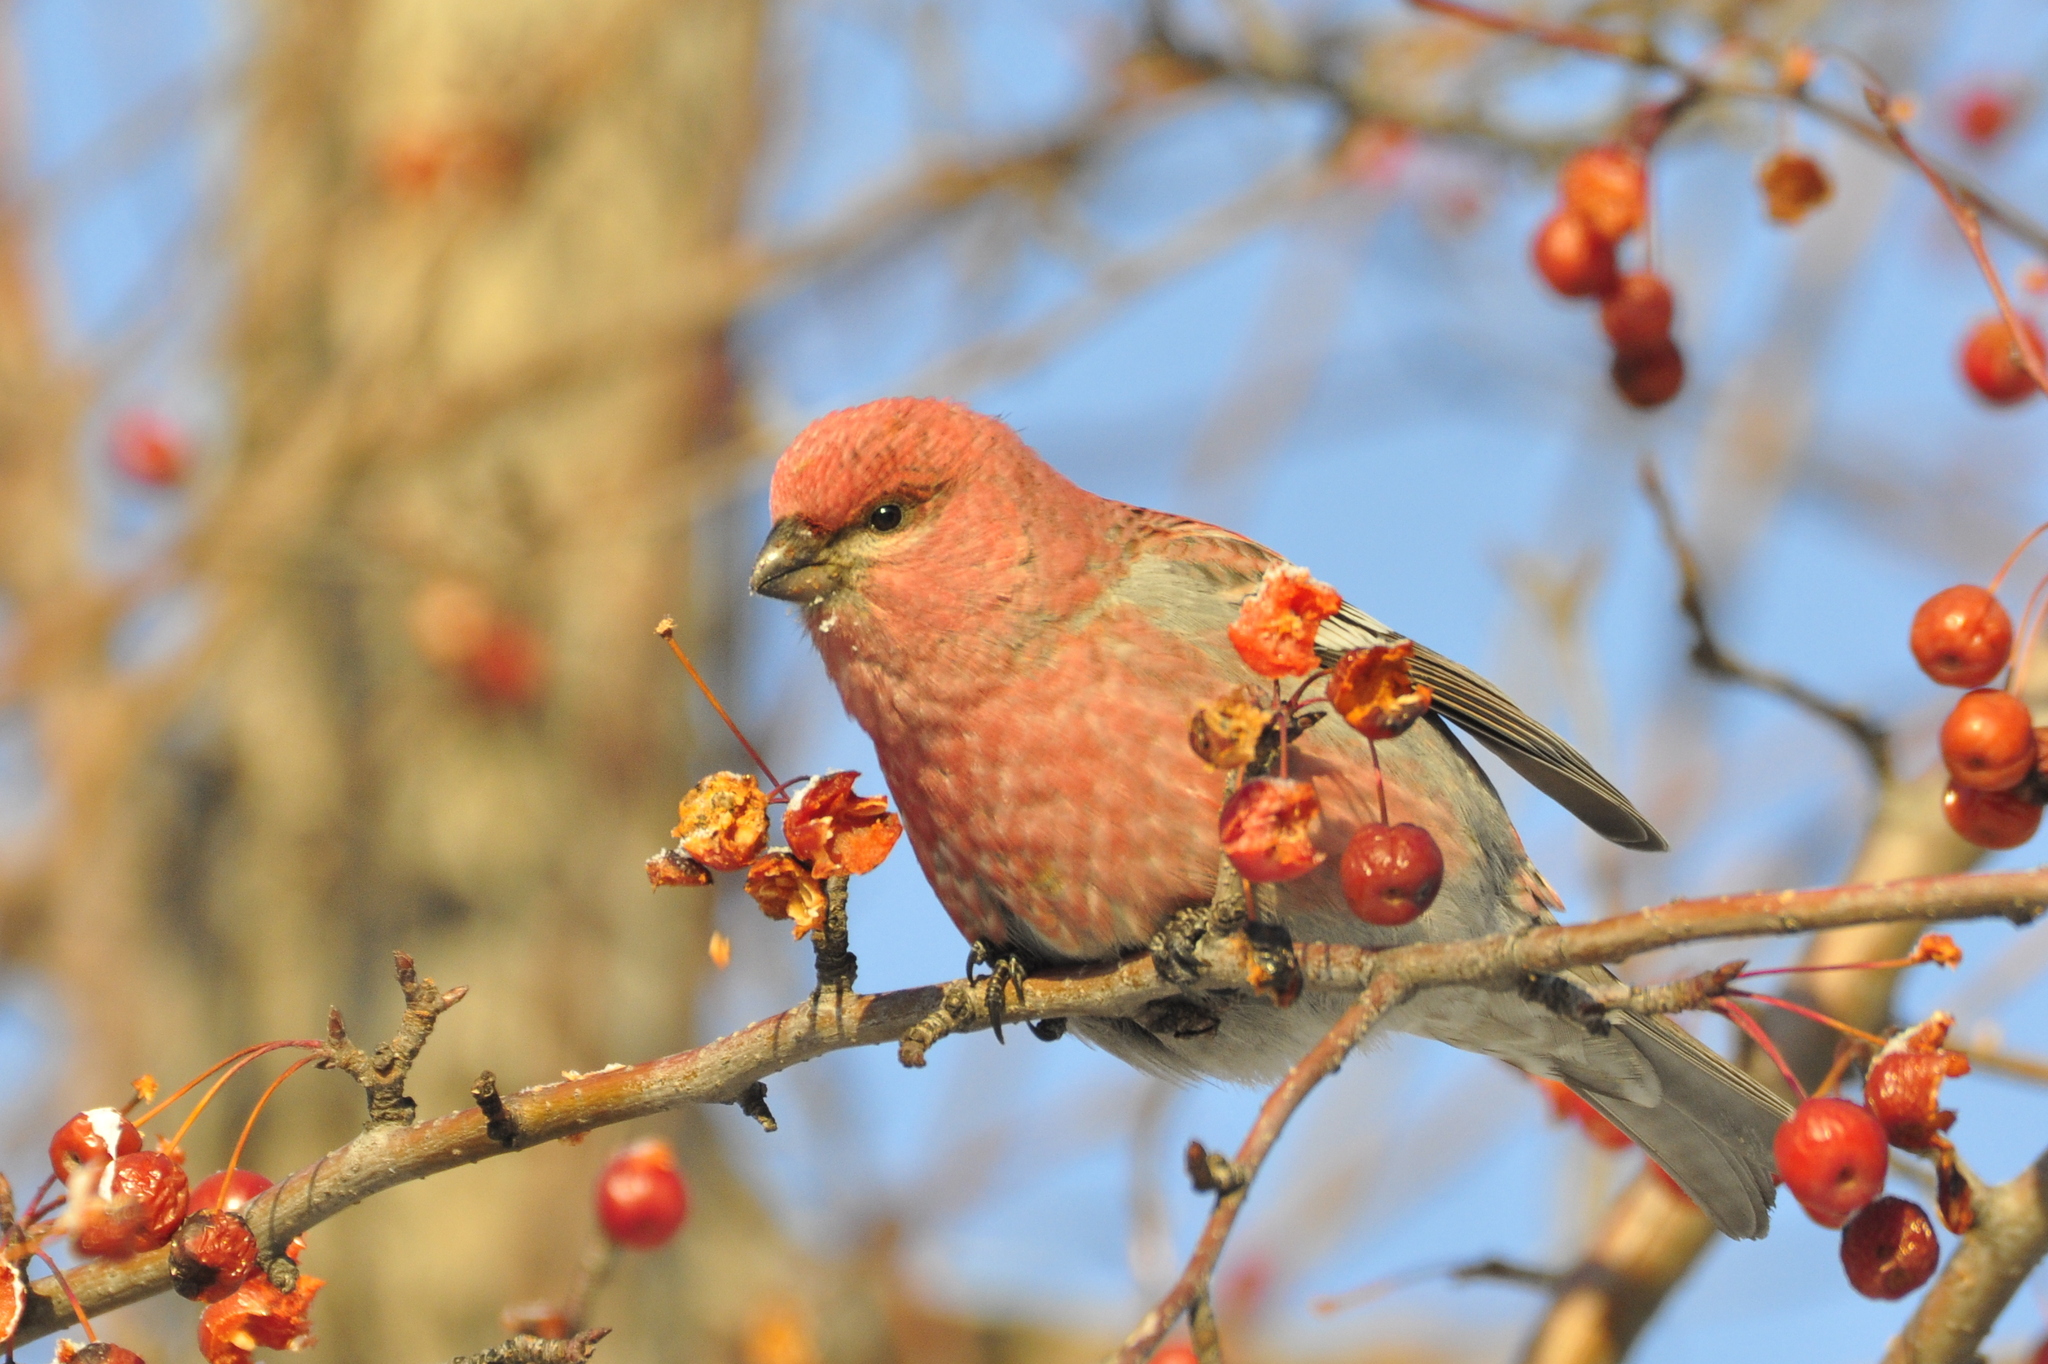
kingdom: Animalia
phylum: Chordata
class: Aves
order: Passeriformes
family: Fringillidae
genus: Pinicola
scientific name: Pinicola enucleator
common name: Pine grosbeak
